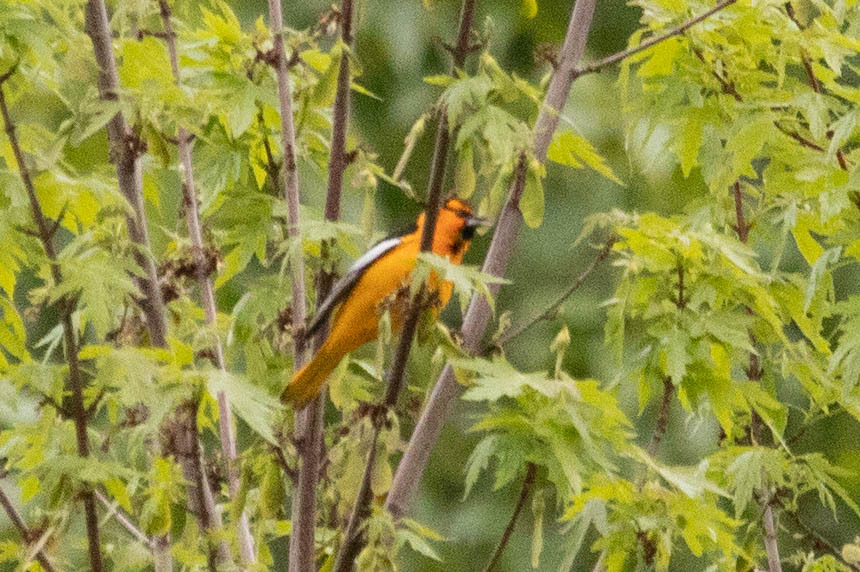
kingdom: Animalia
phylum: Chordata
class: Aves
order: Passeriformes
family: Icteridae
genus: Icterus
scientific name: Icterus bullockii
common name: Bullock's oriole
